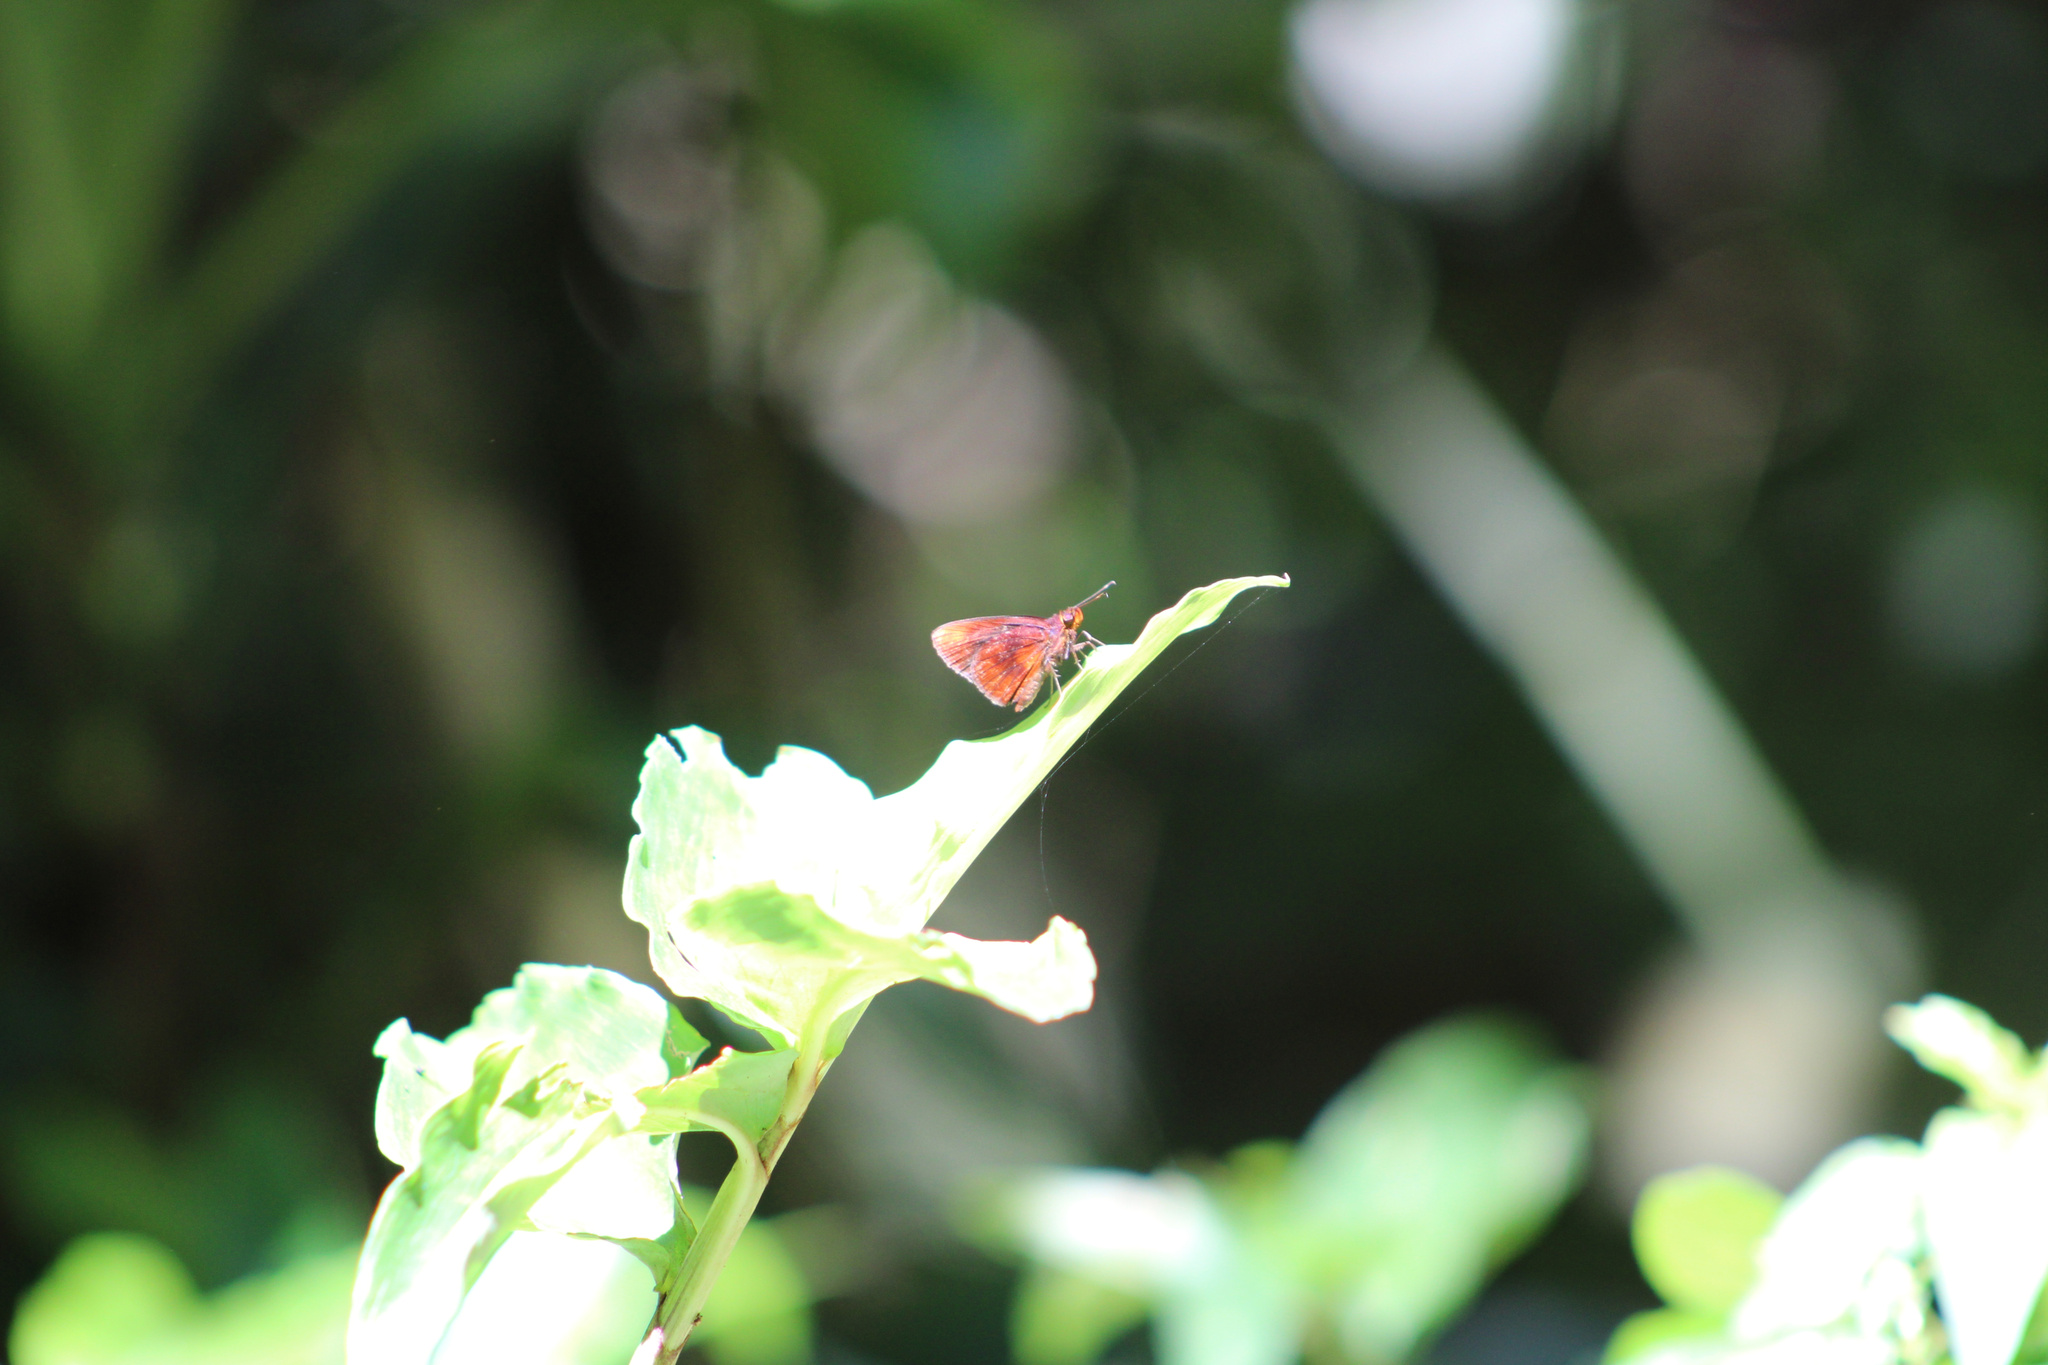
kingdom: Animalia
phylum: Arthropoda
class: Insecta
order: Lepidoptera
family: Hesperiidae
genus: Miltomiges
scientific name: Miltomiges cinnamomea
